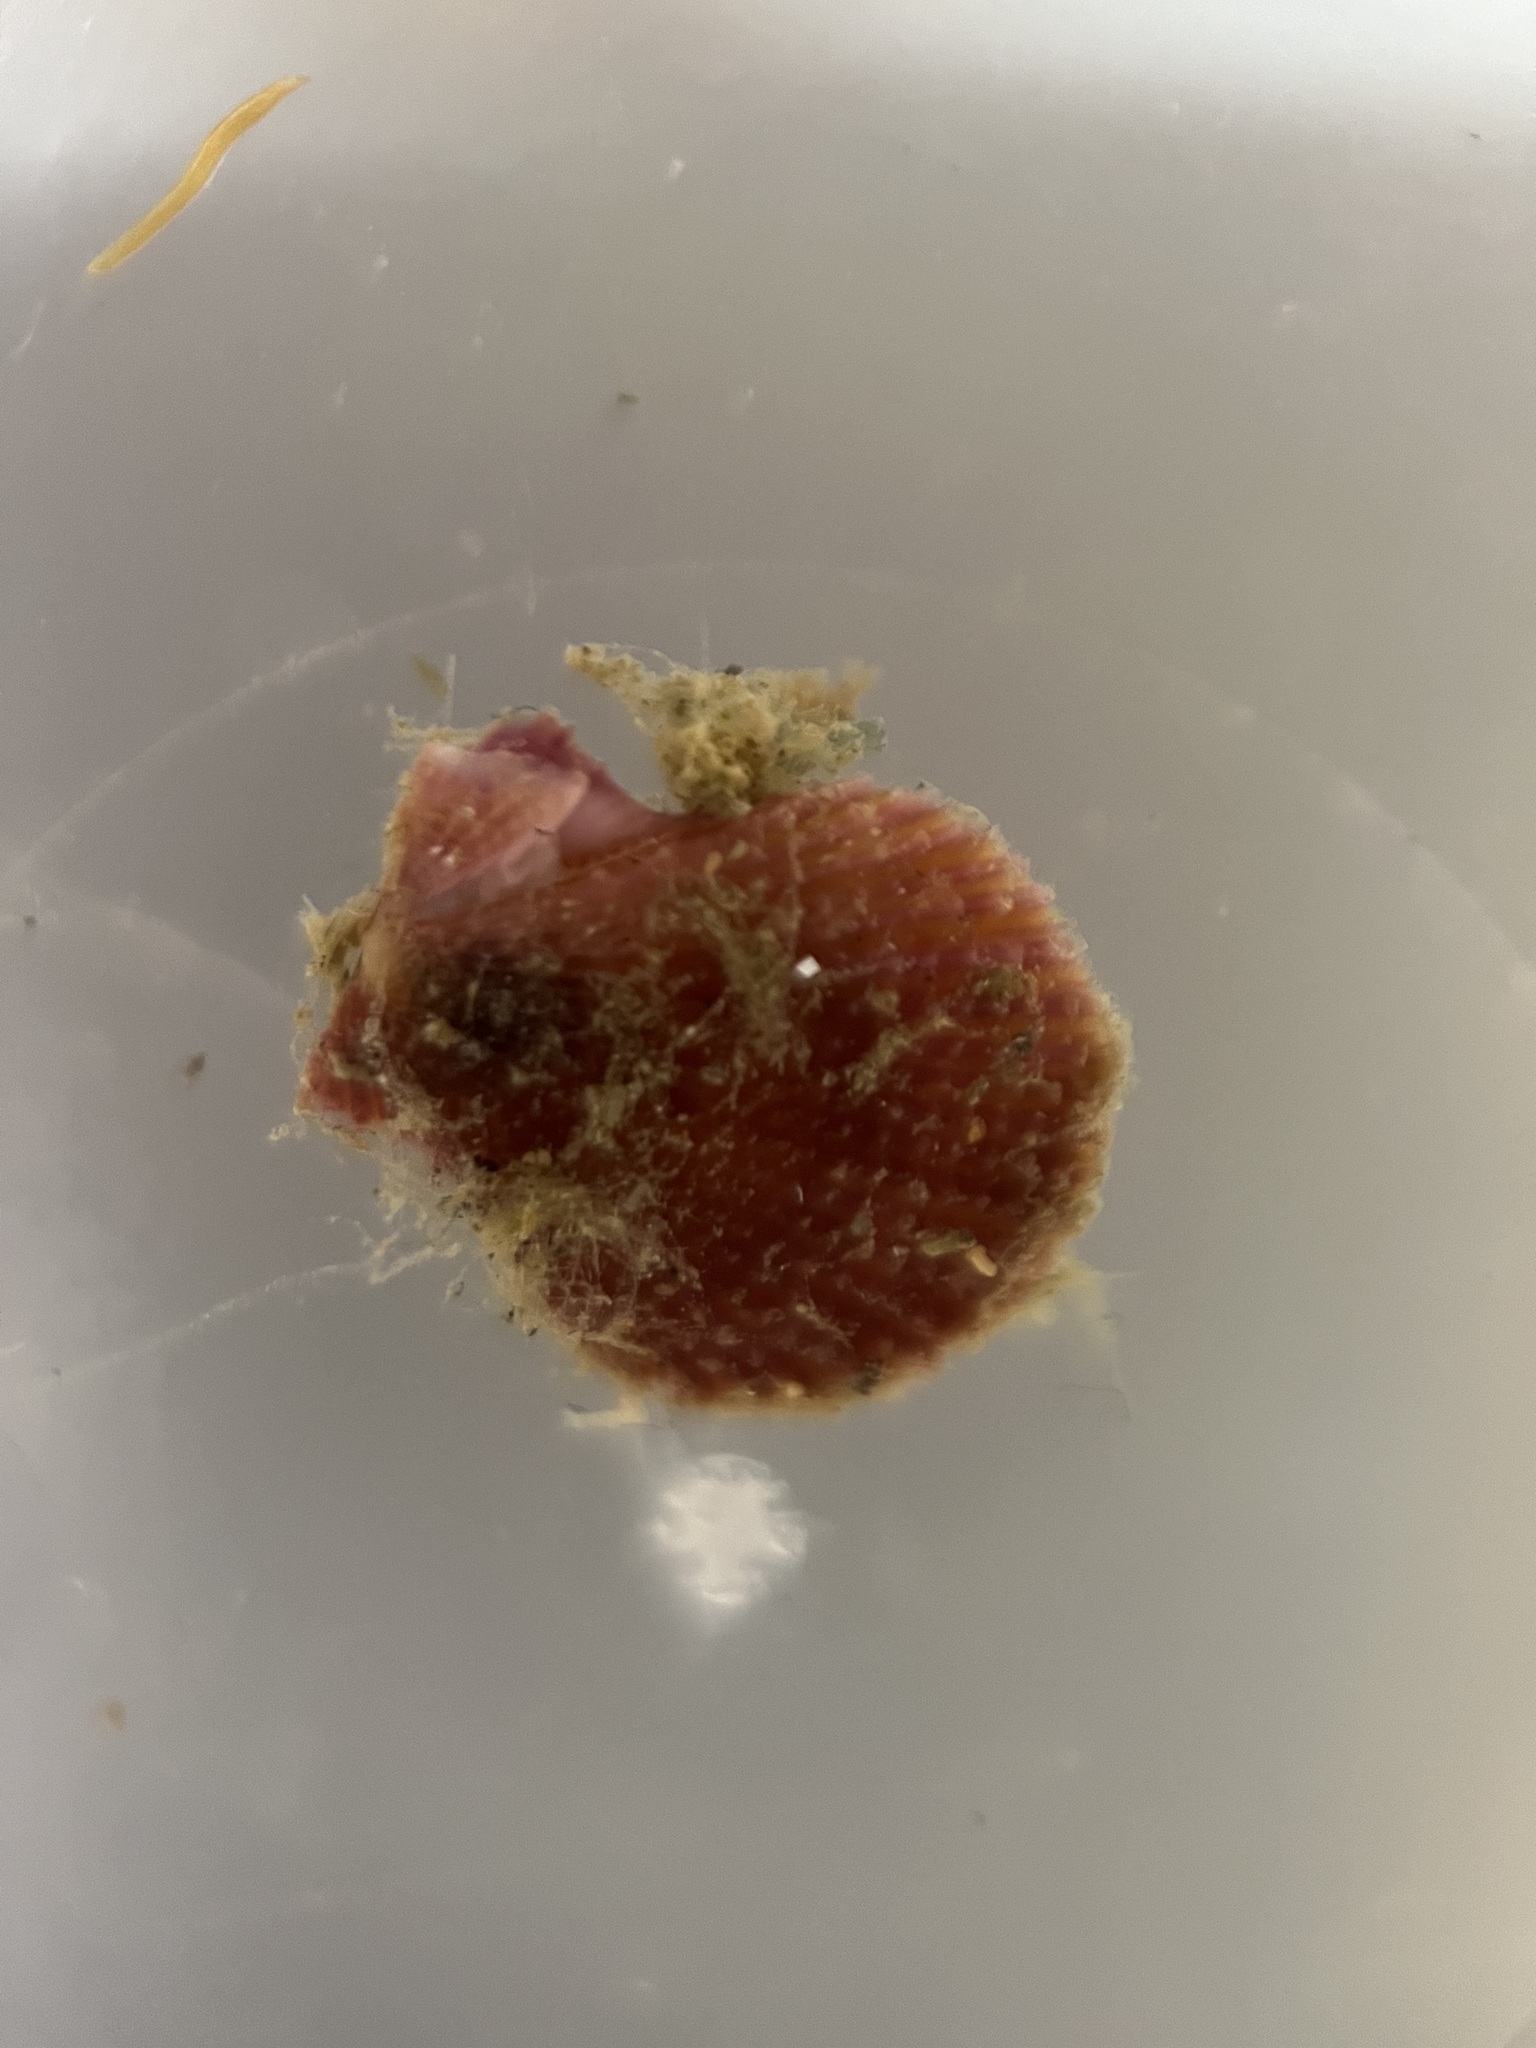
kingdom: Animalia
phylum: Mollusca
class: Bivalvia
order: Pectinida
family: Pectinidae
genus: Mimachlamys
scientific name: Mimachlamys asperrima
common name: Austral scallop
